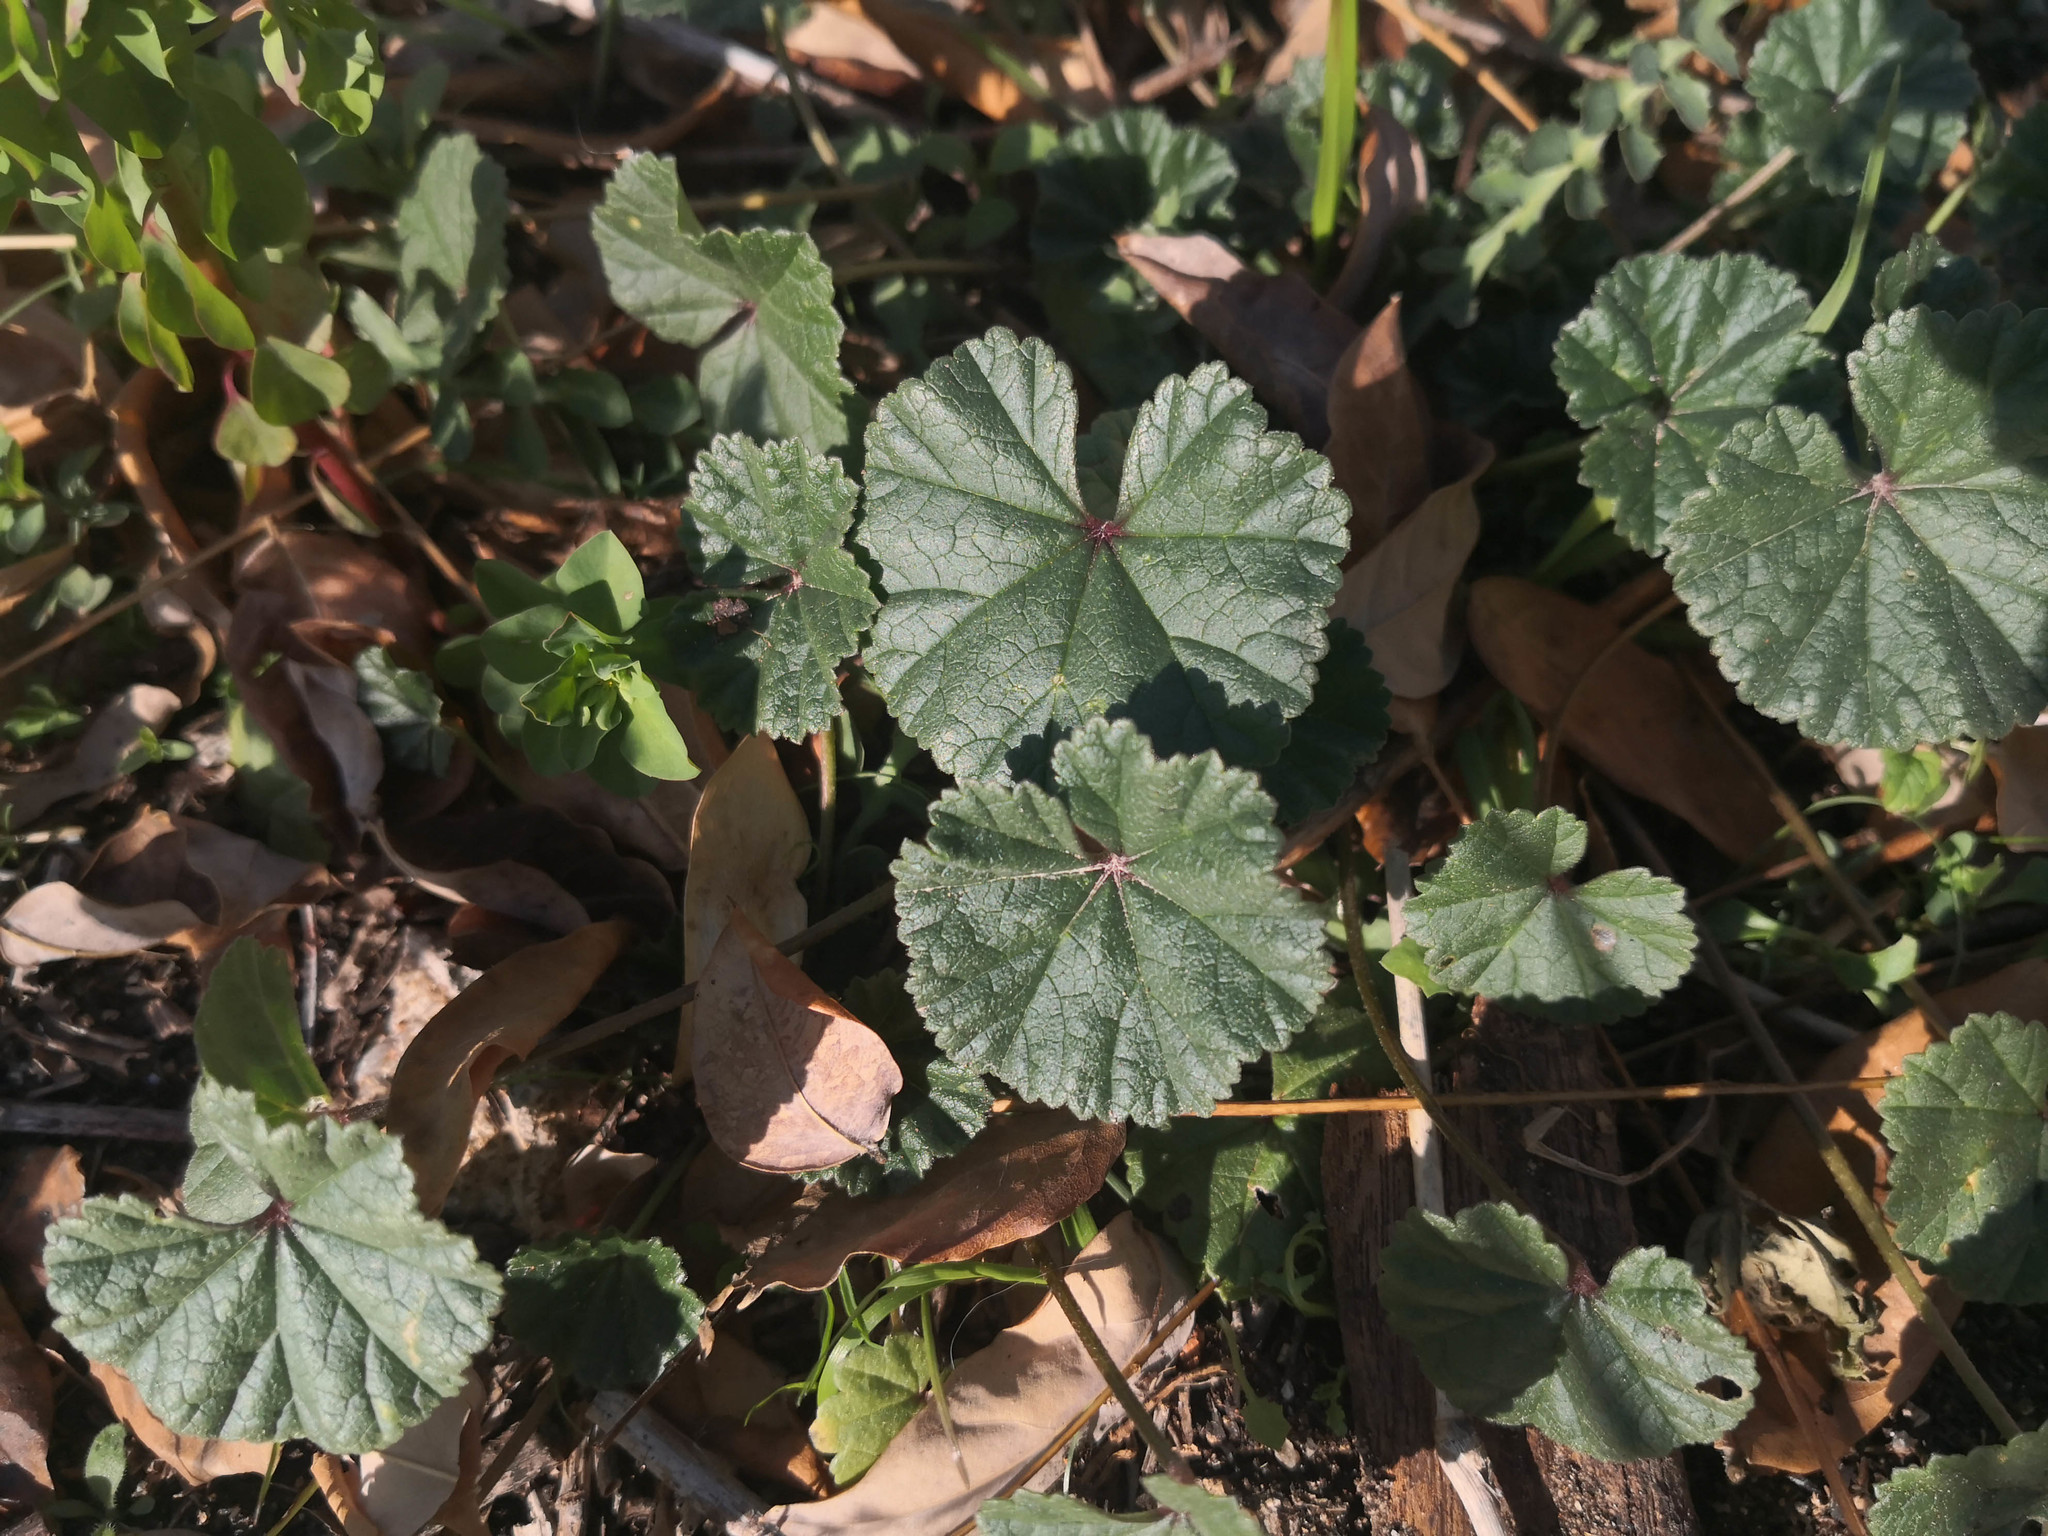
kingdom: Plantae
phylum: Tracheophyta
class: Magnoliopsida
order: Malvales
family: Malvaceae
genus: Malva
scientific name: Malva sylvestris
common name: Common mallow
